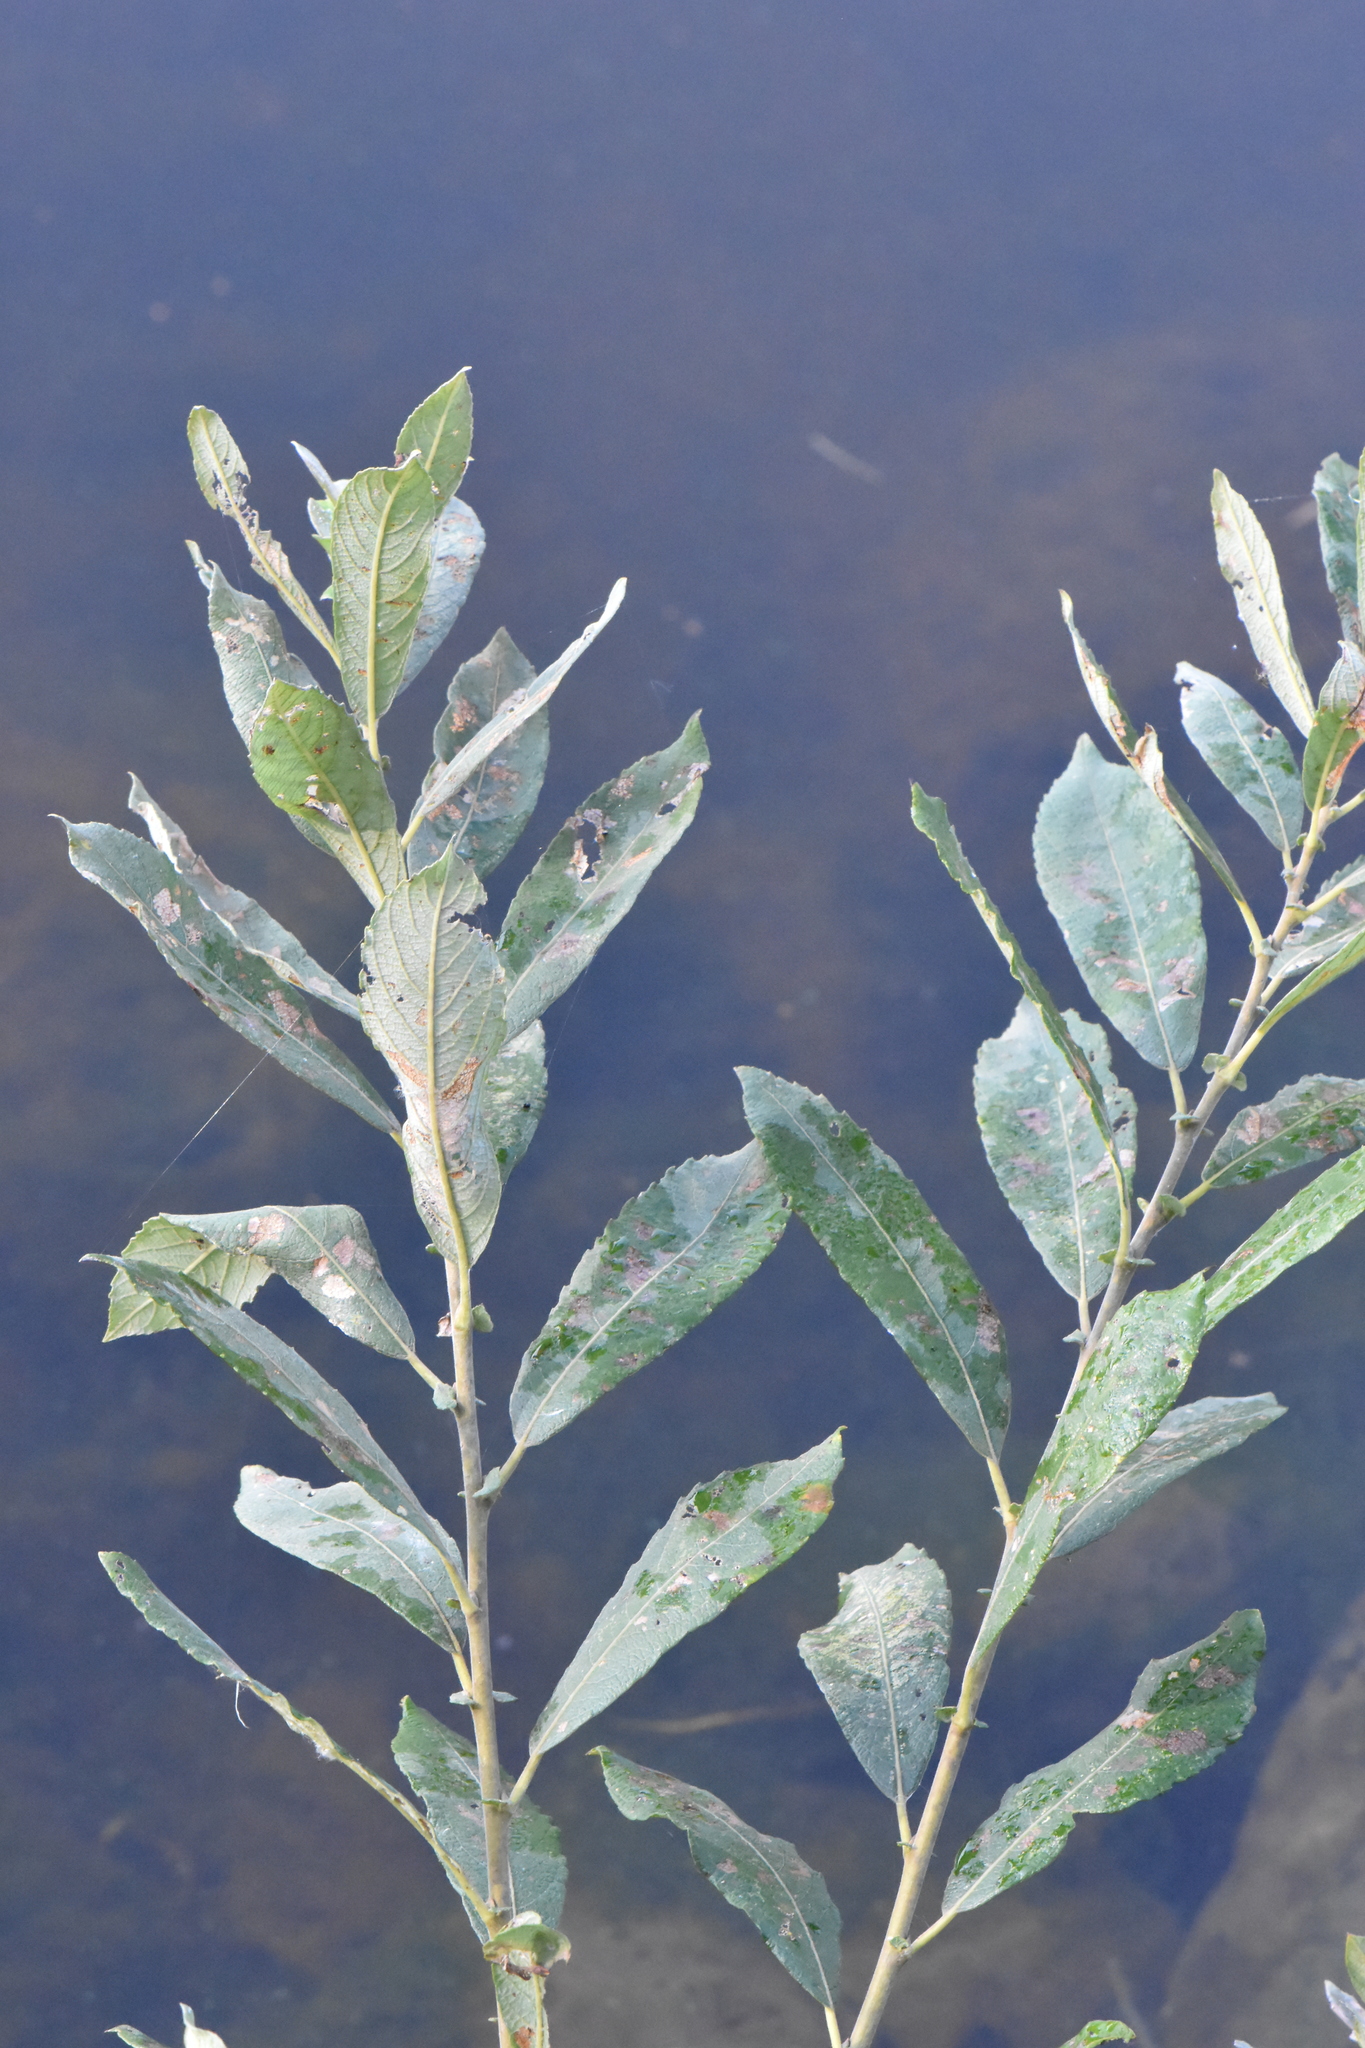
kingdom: Plantae
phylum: Tracheophyta
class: Magnoliopsida
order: Malpighiales
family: Salicaceae
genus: Salix
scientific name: Salix cinerea
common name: Common sallow
